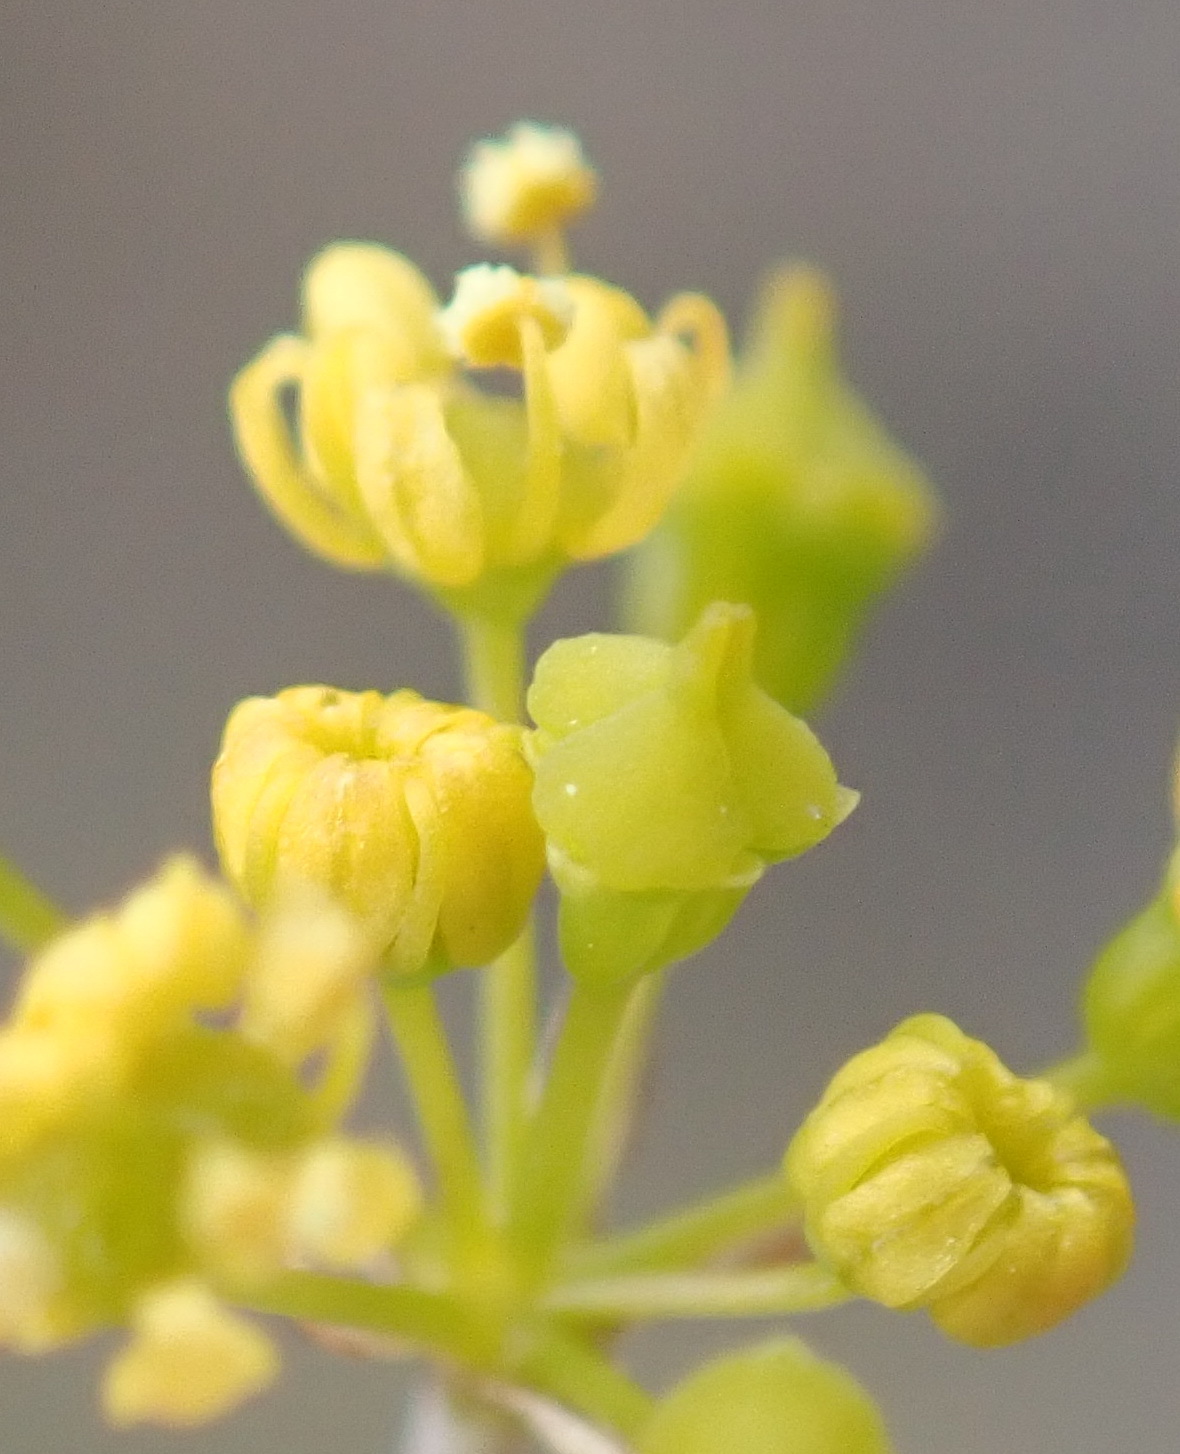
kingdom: Plantae
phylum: Tracheophyta
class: Magnoliopsida
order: Apiales
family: Apiaceae
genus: Chamarea
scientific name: Chamarea capensis
